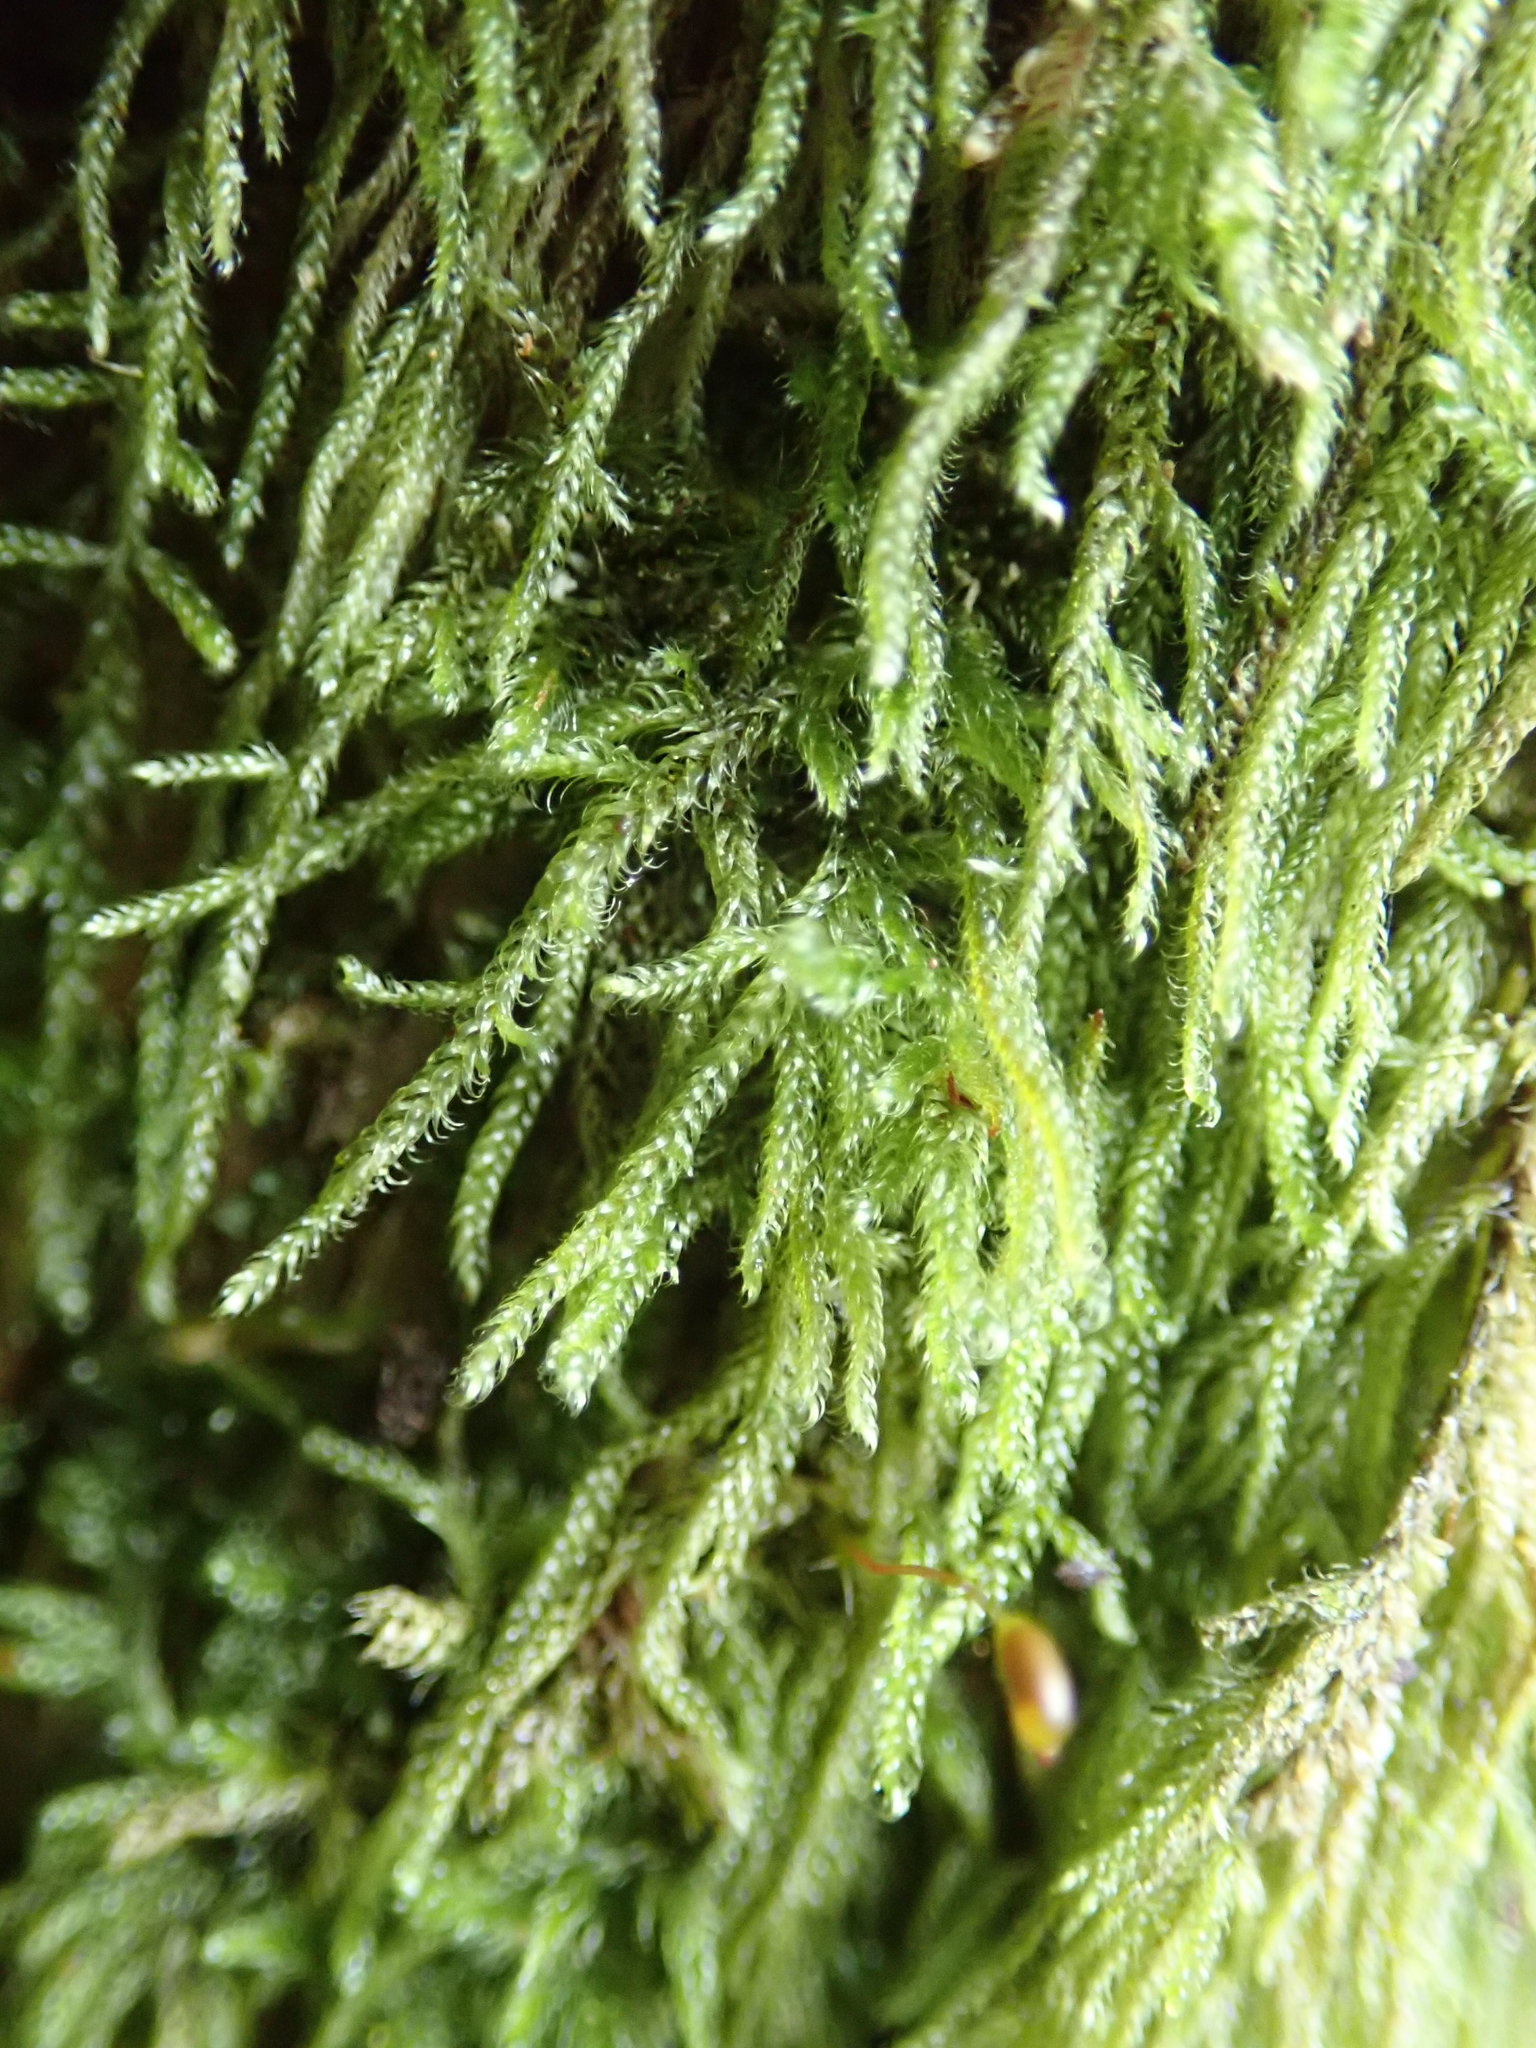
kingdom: Plantae
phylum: Bryophyta
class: Bryopsida
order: Hypnales
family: Pylaisiadelphaceae
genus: Trochophyllohypnum
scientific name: Trochophyllohypnum circinale
